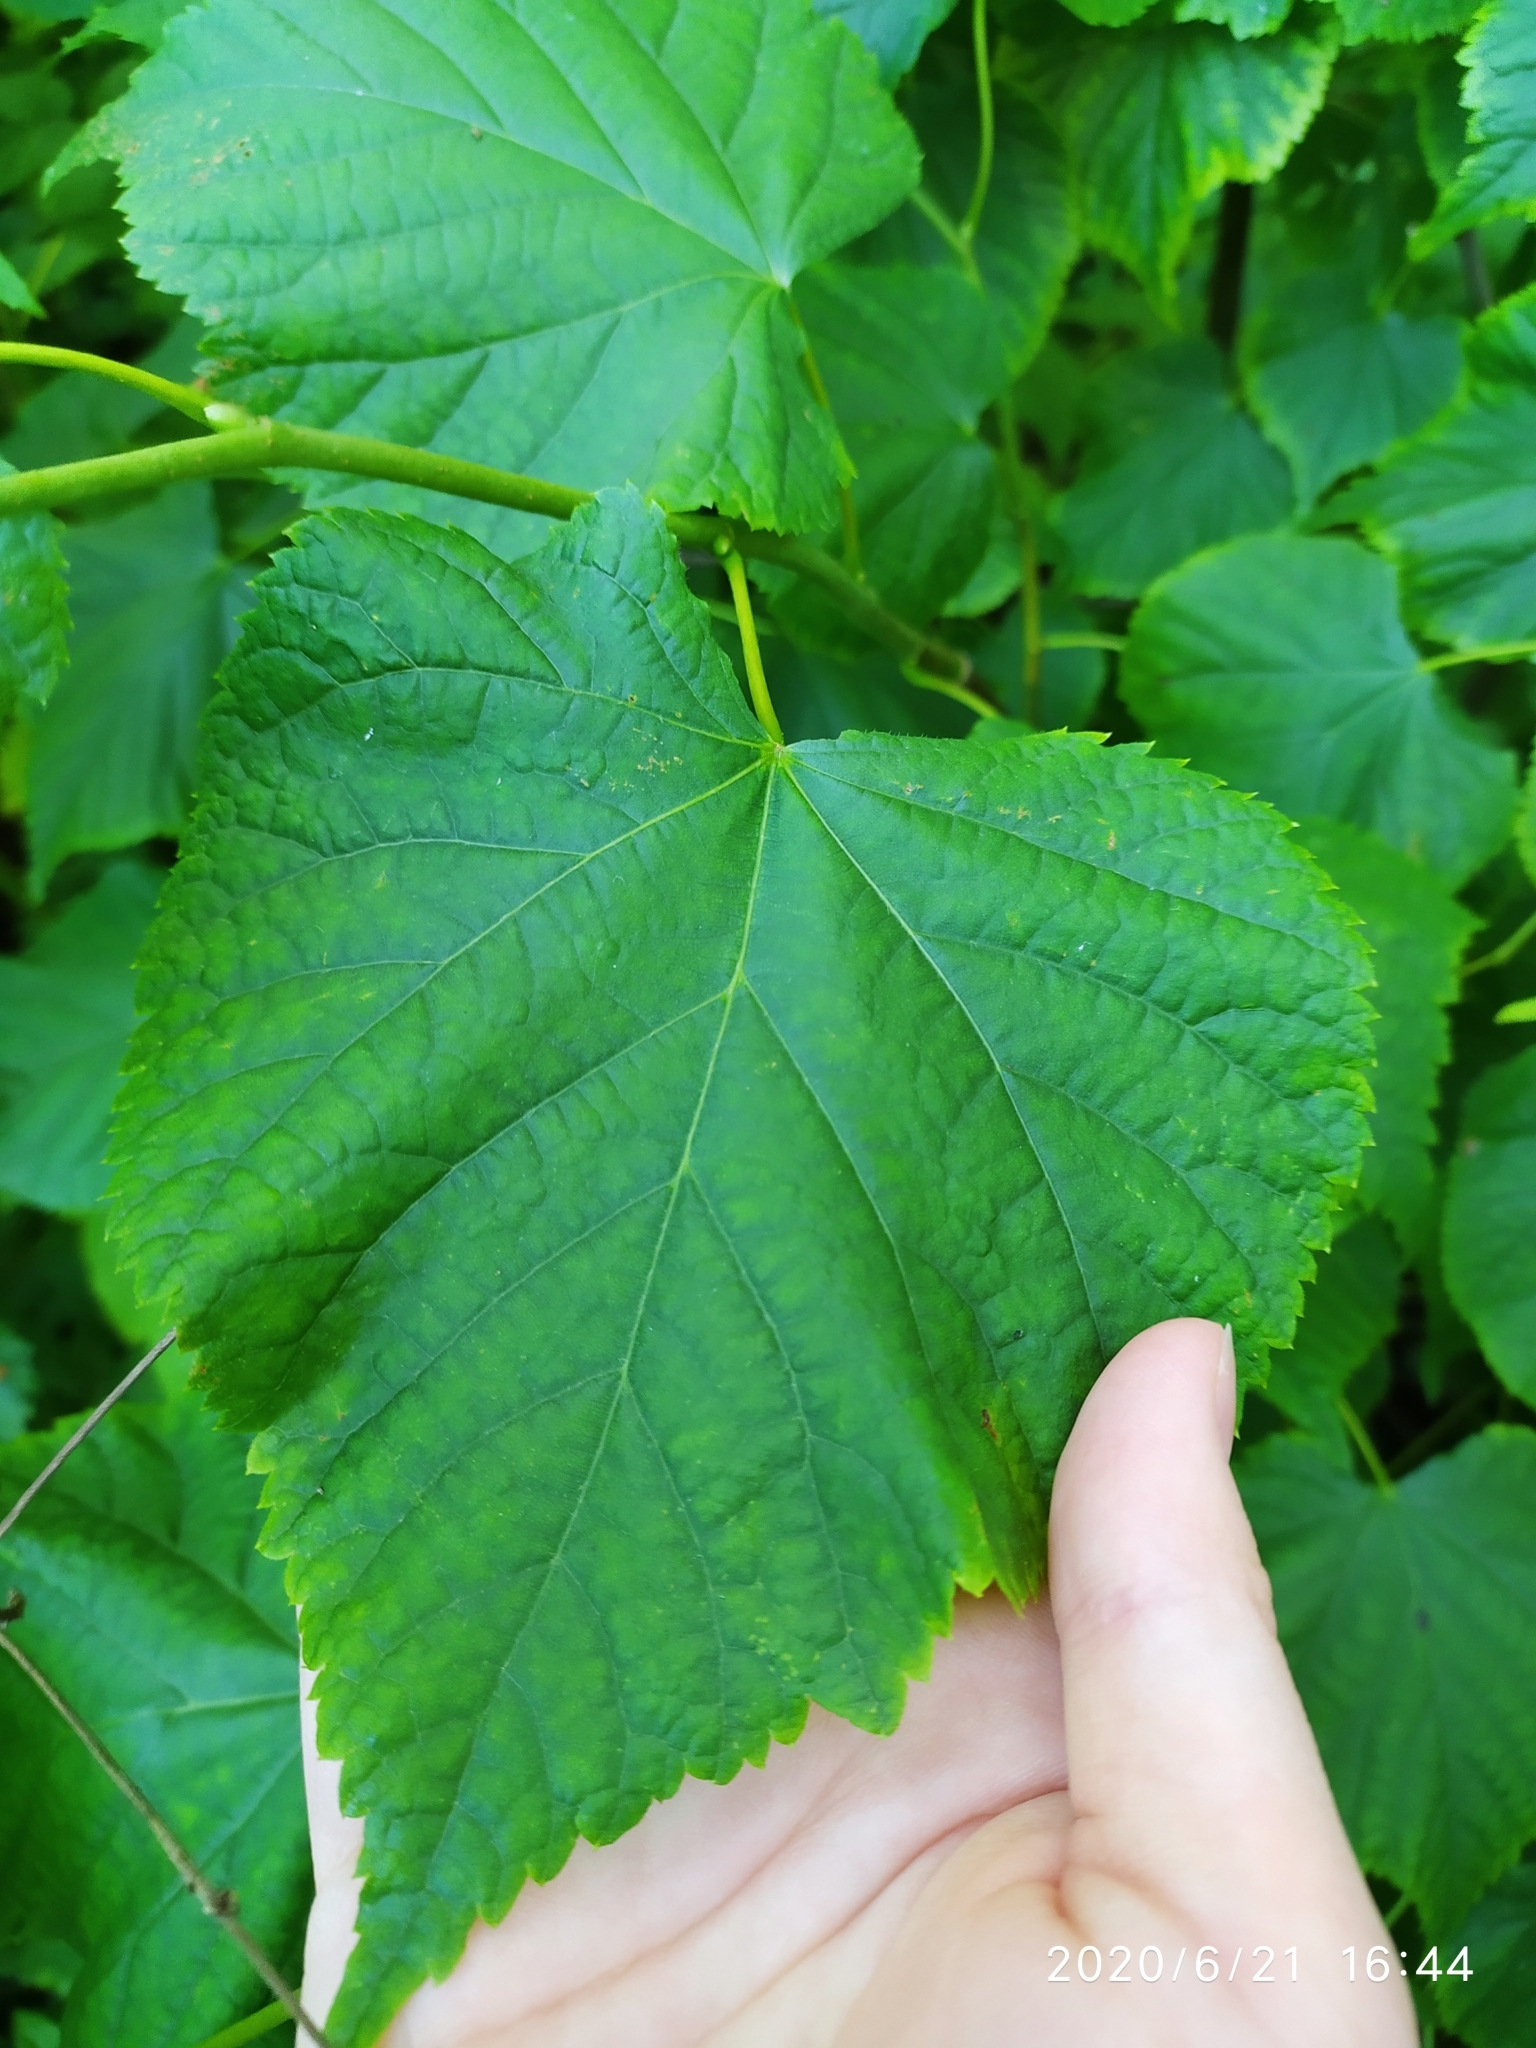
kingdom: Plantae
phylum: Tracheophyta
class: Magnoliopsida
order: Malvales
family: Malvaceae
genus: Tilia
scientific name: Tilia cordata
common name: Small-leaved lime
